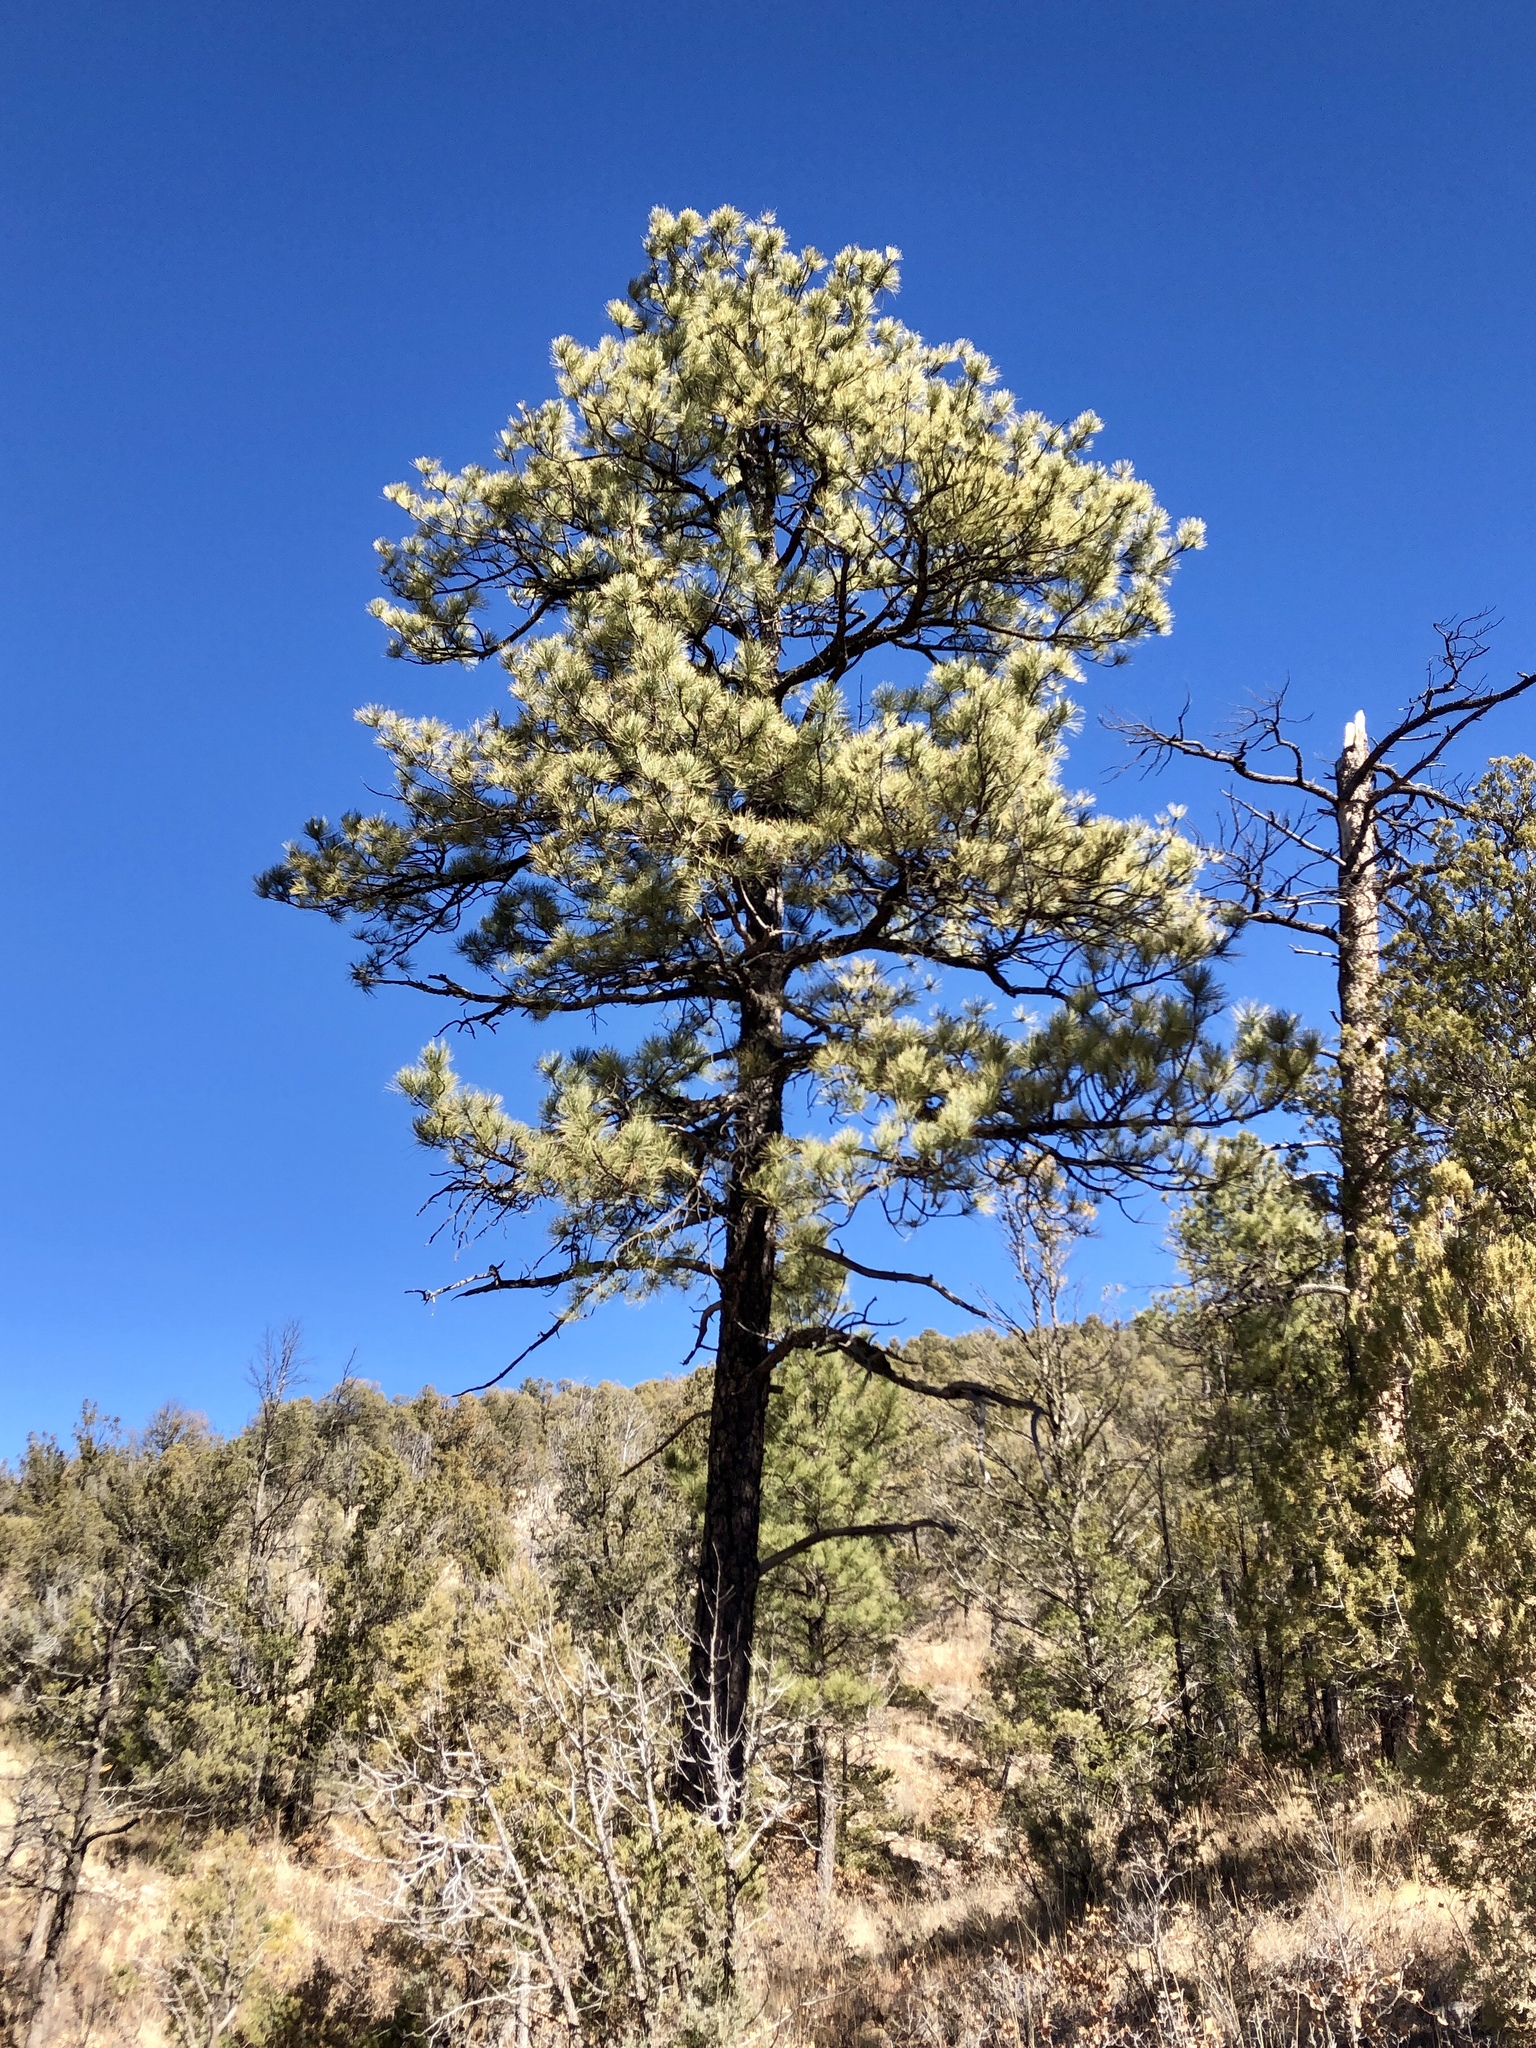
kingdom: Plantae
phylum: Tracheophyta
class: Pinopsida
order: Pinales
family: Pinaceae
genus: Pinus
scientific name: Pinus ponderosa
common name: Western yellow-pine
